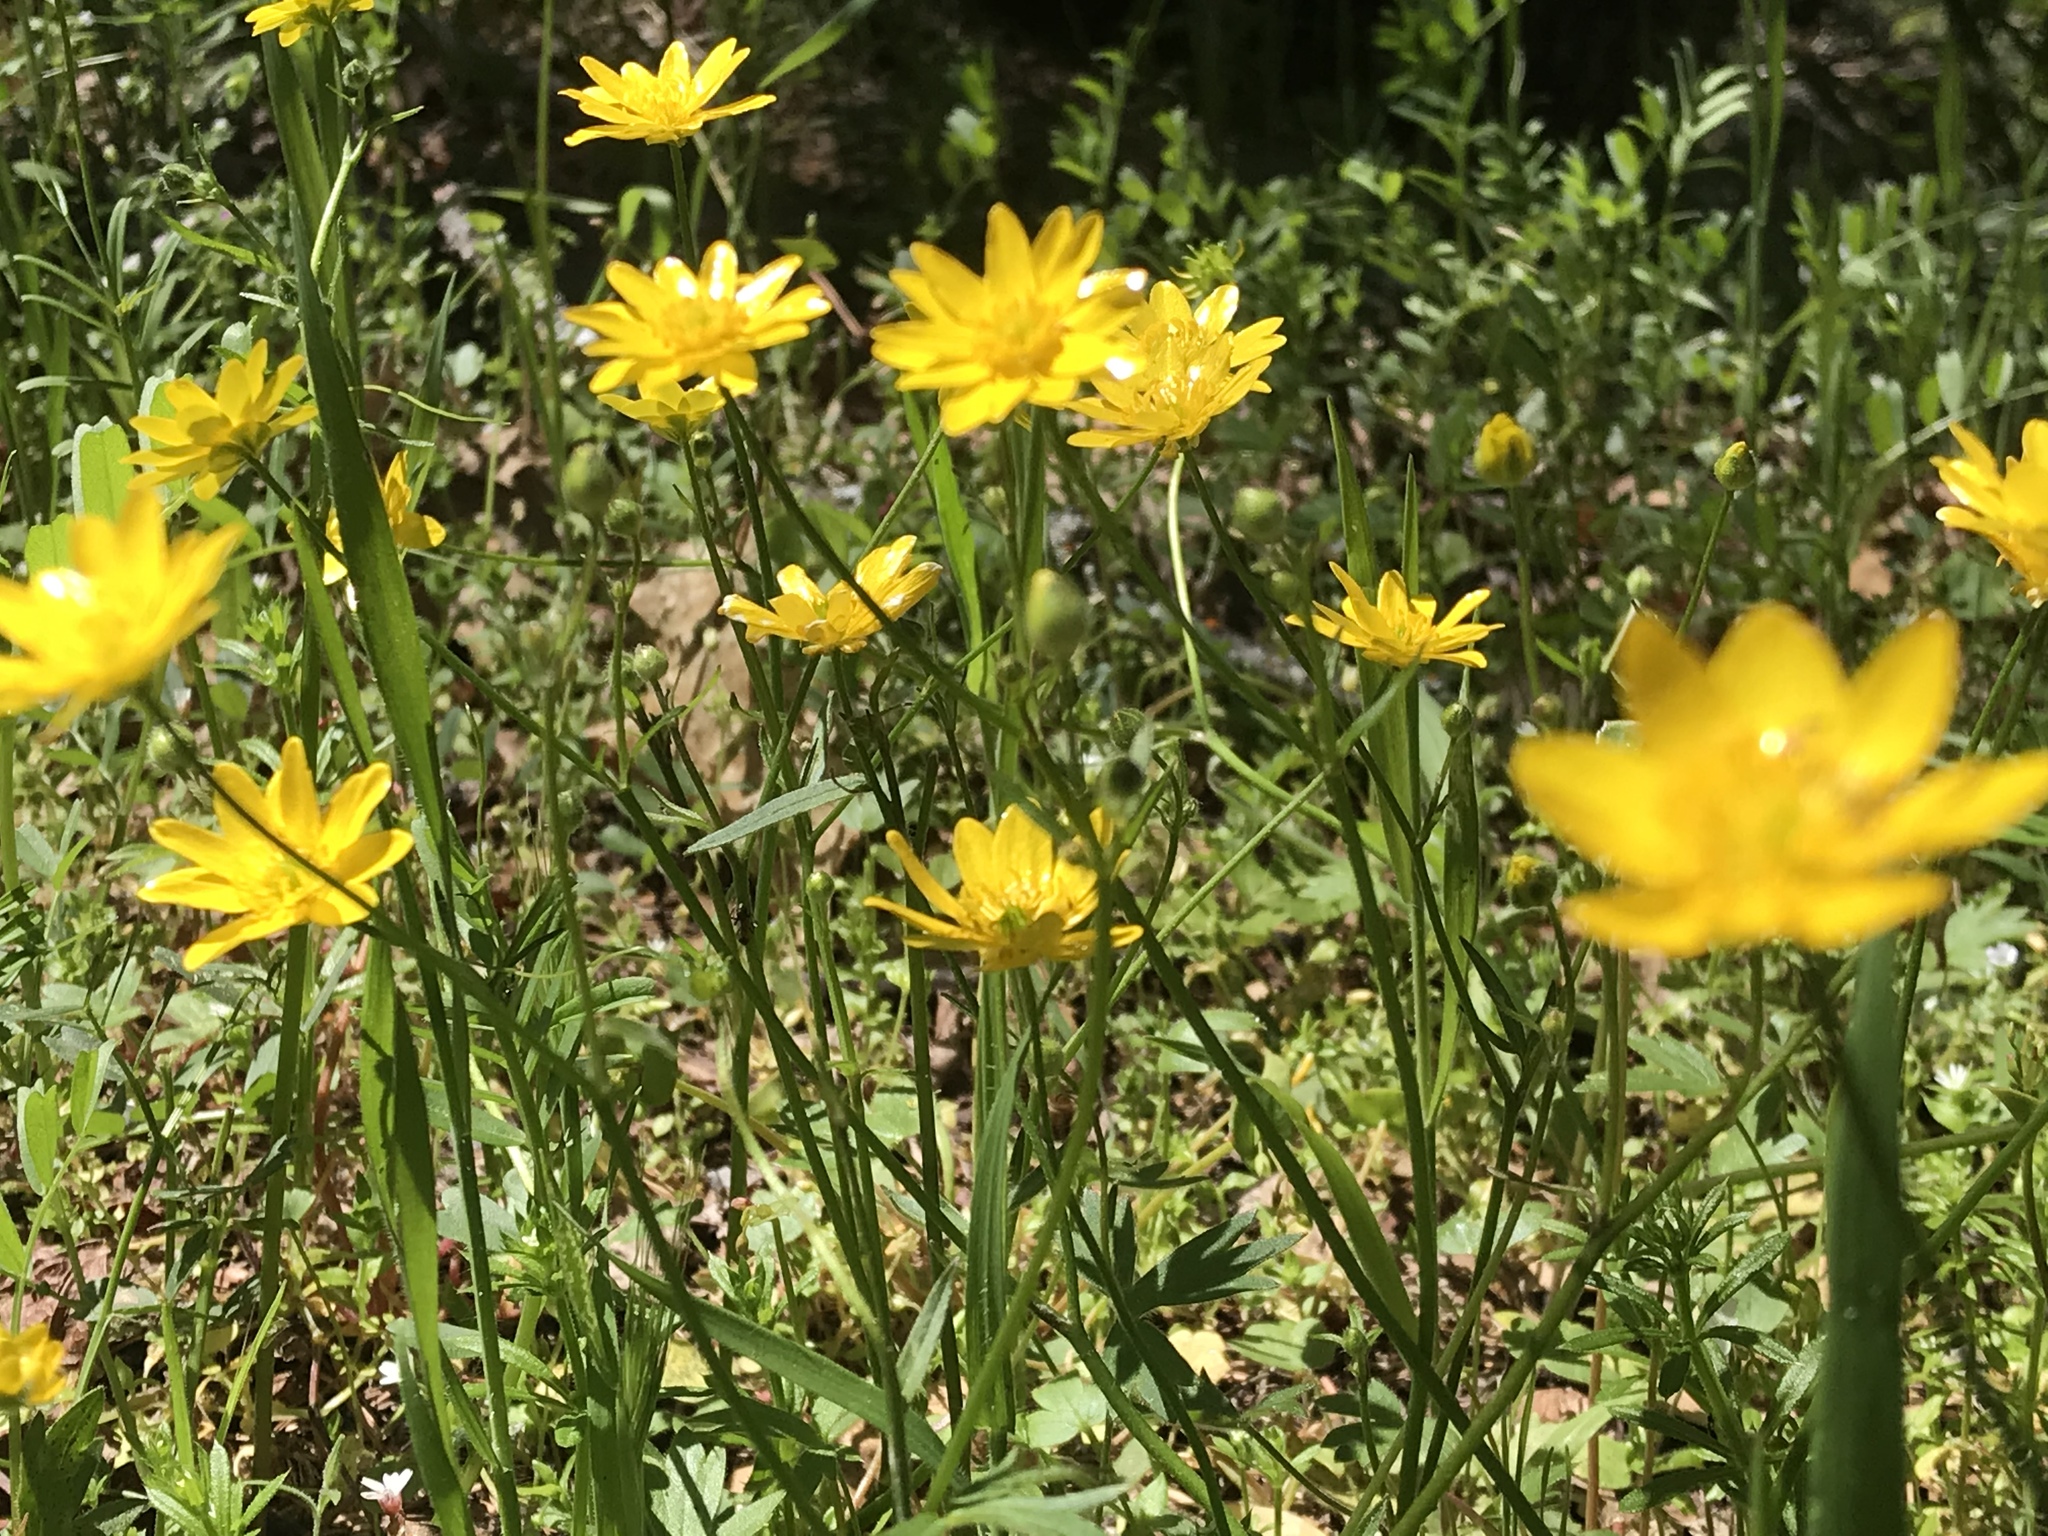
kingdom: Plantae
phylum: Tracheophyta
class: Magnoliopsida
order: Ranunculales
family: Ranunculaceae
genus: Ranunculus
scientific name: Ranunculus californicus
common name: California buttercup
